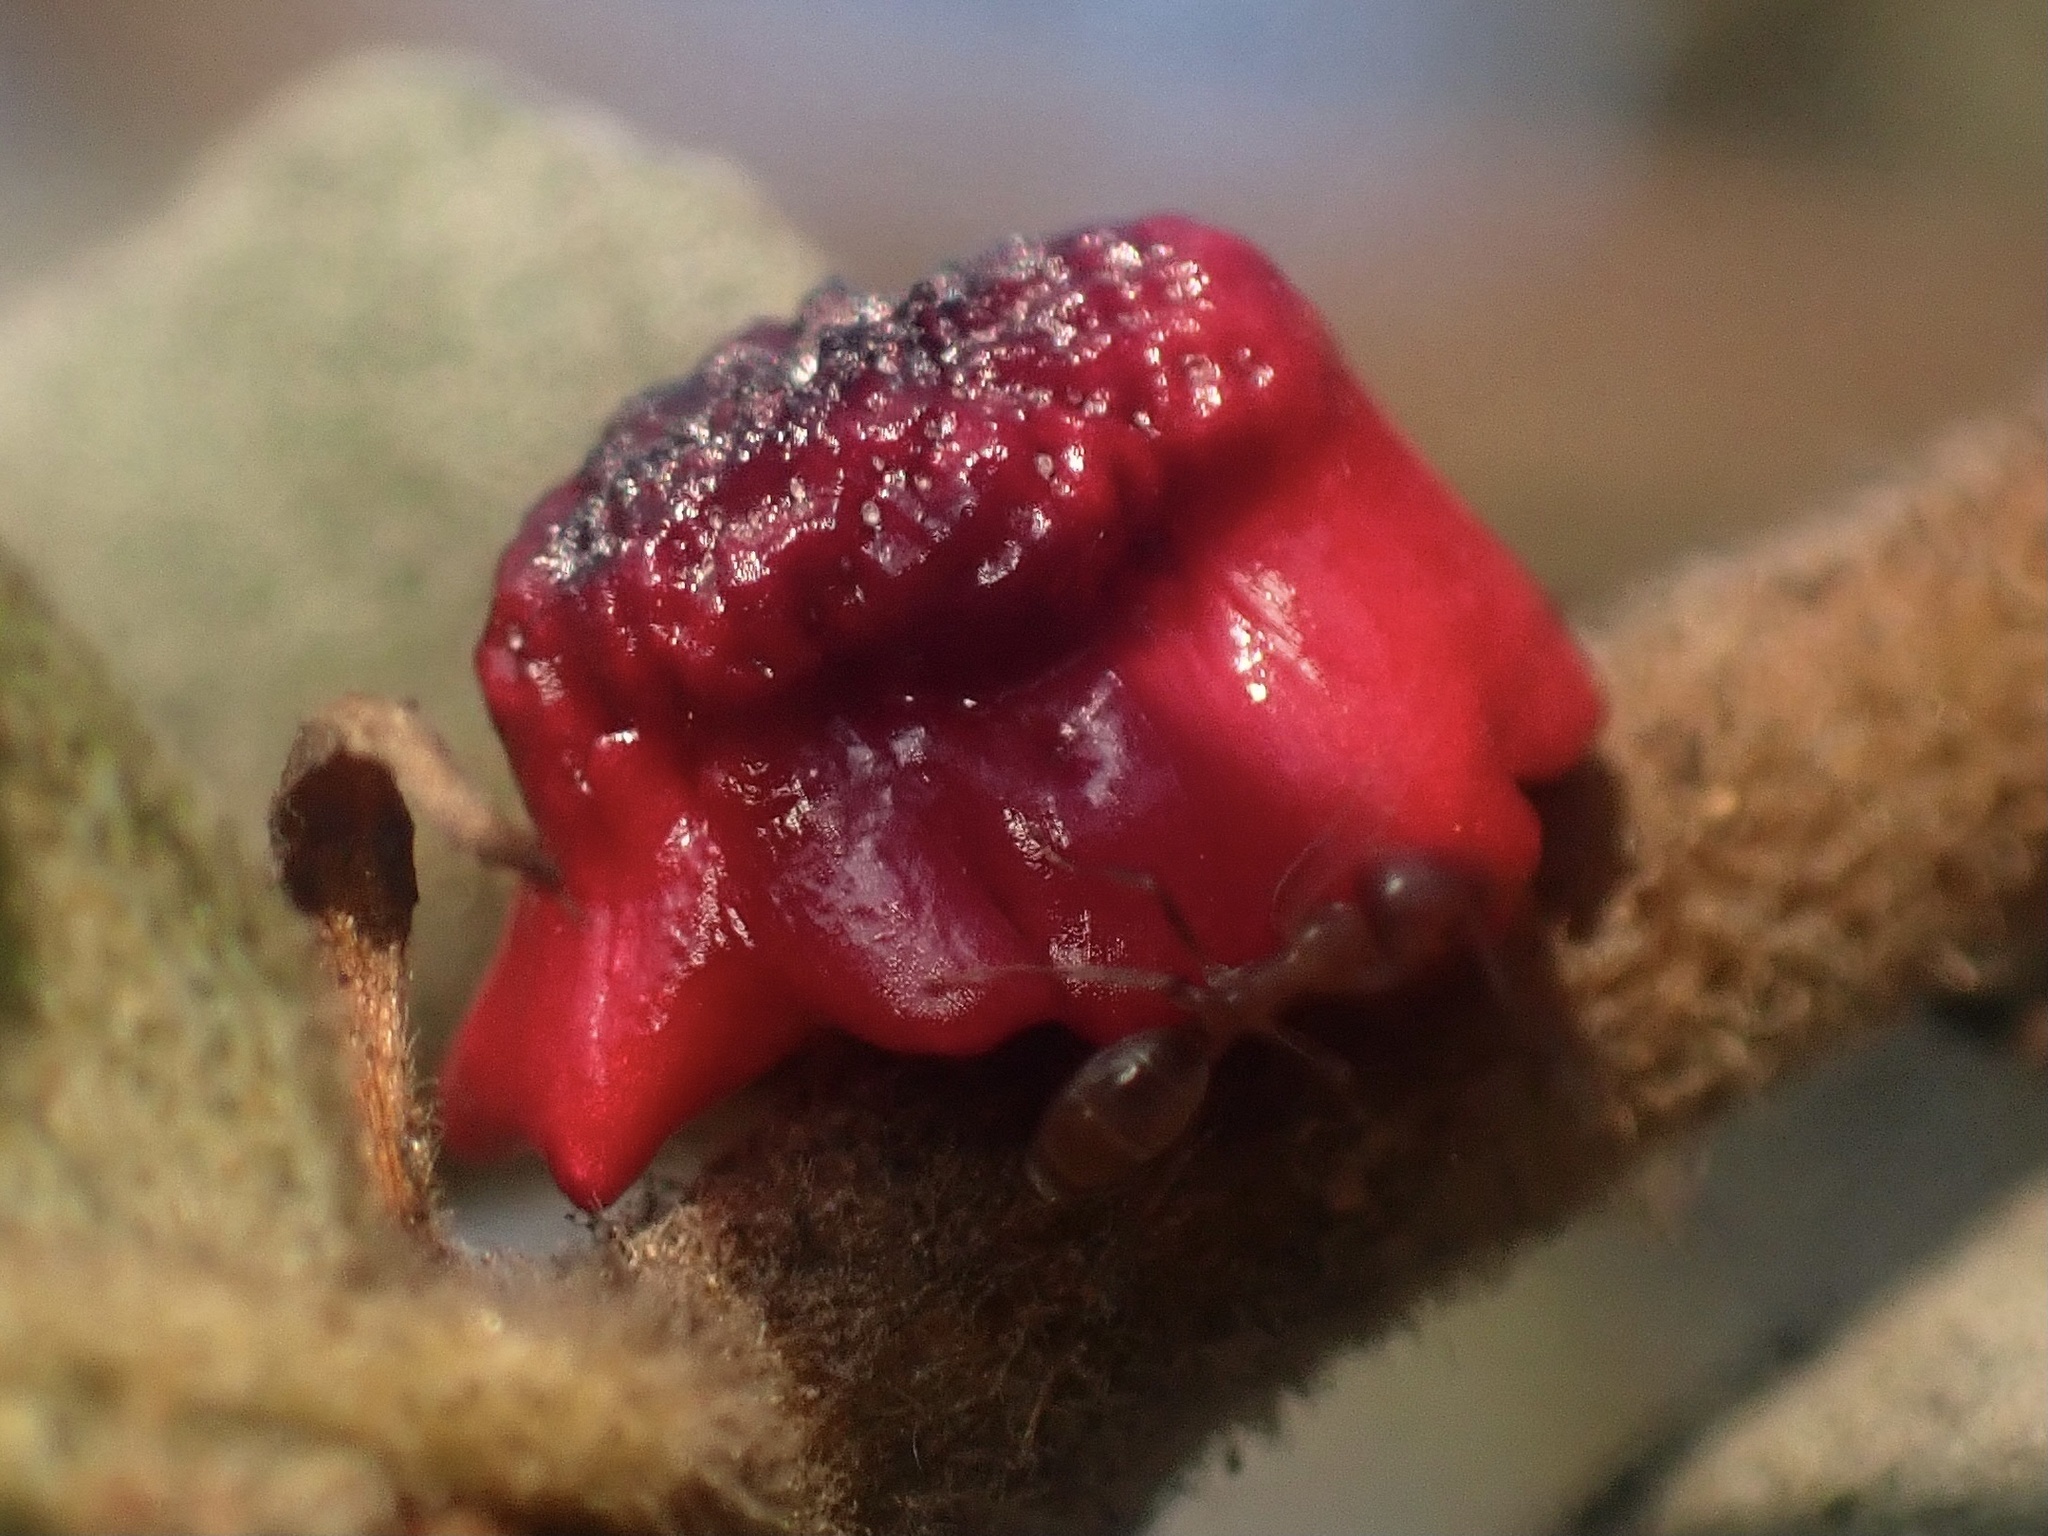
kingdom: Animalia
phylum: Arthropoda
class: Insecta
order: Hymenoptera
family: Cynipidae
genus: Disholcaspis
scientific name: Disholcaspis prehensa
